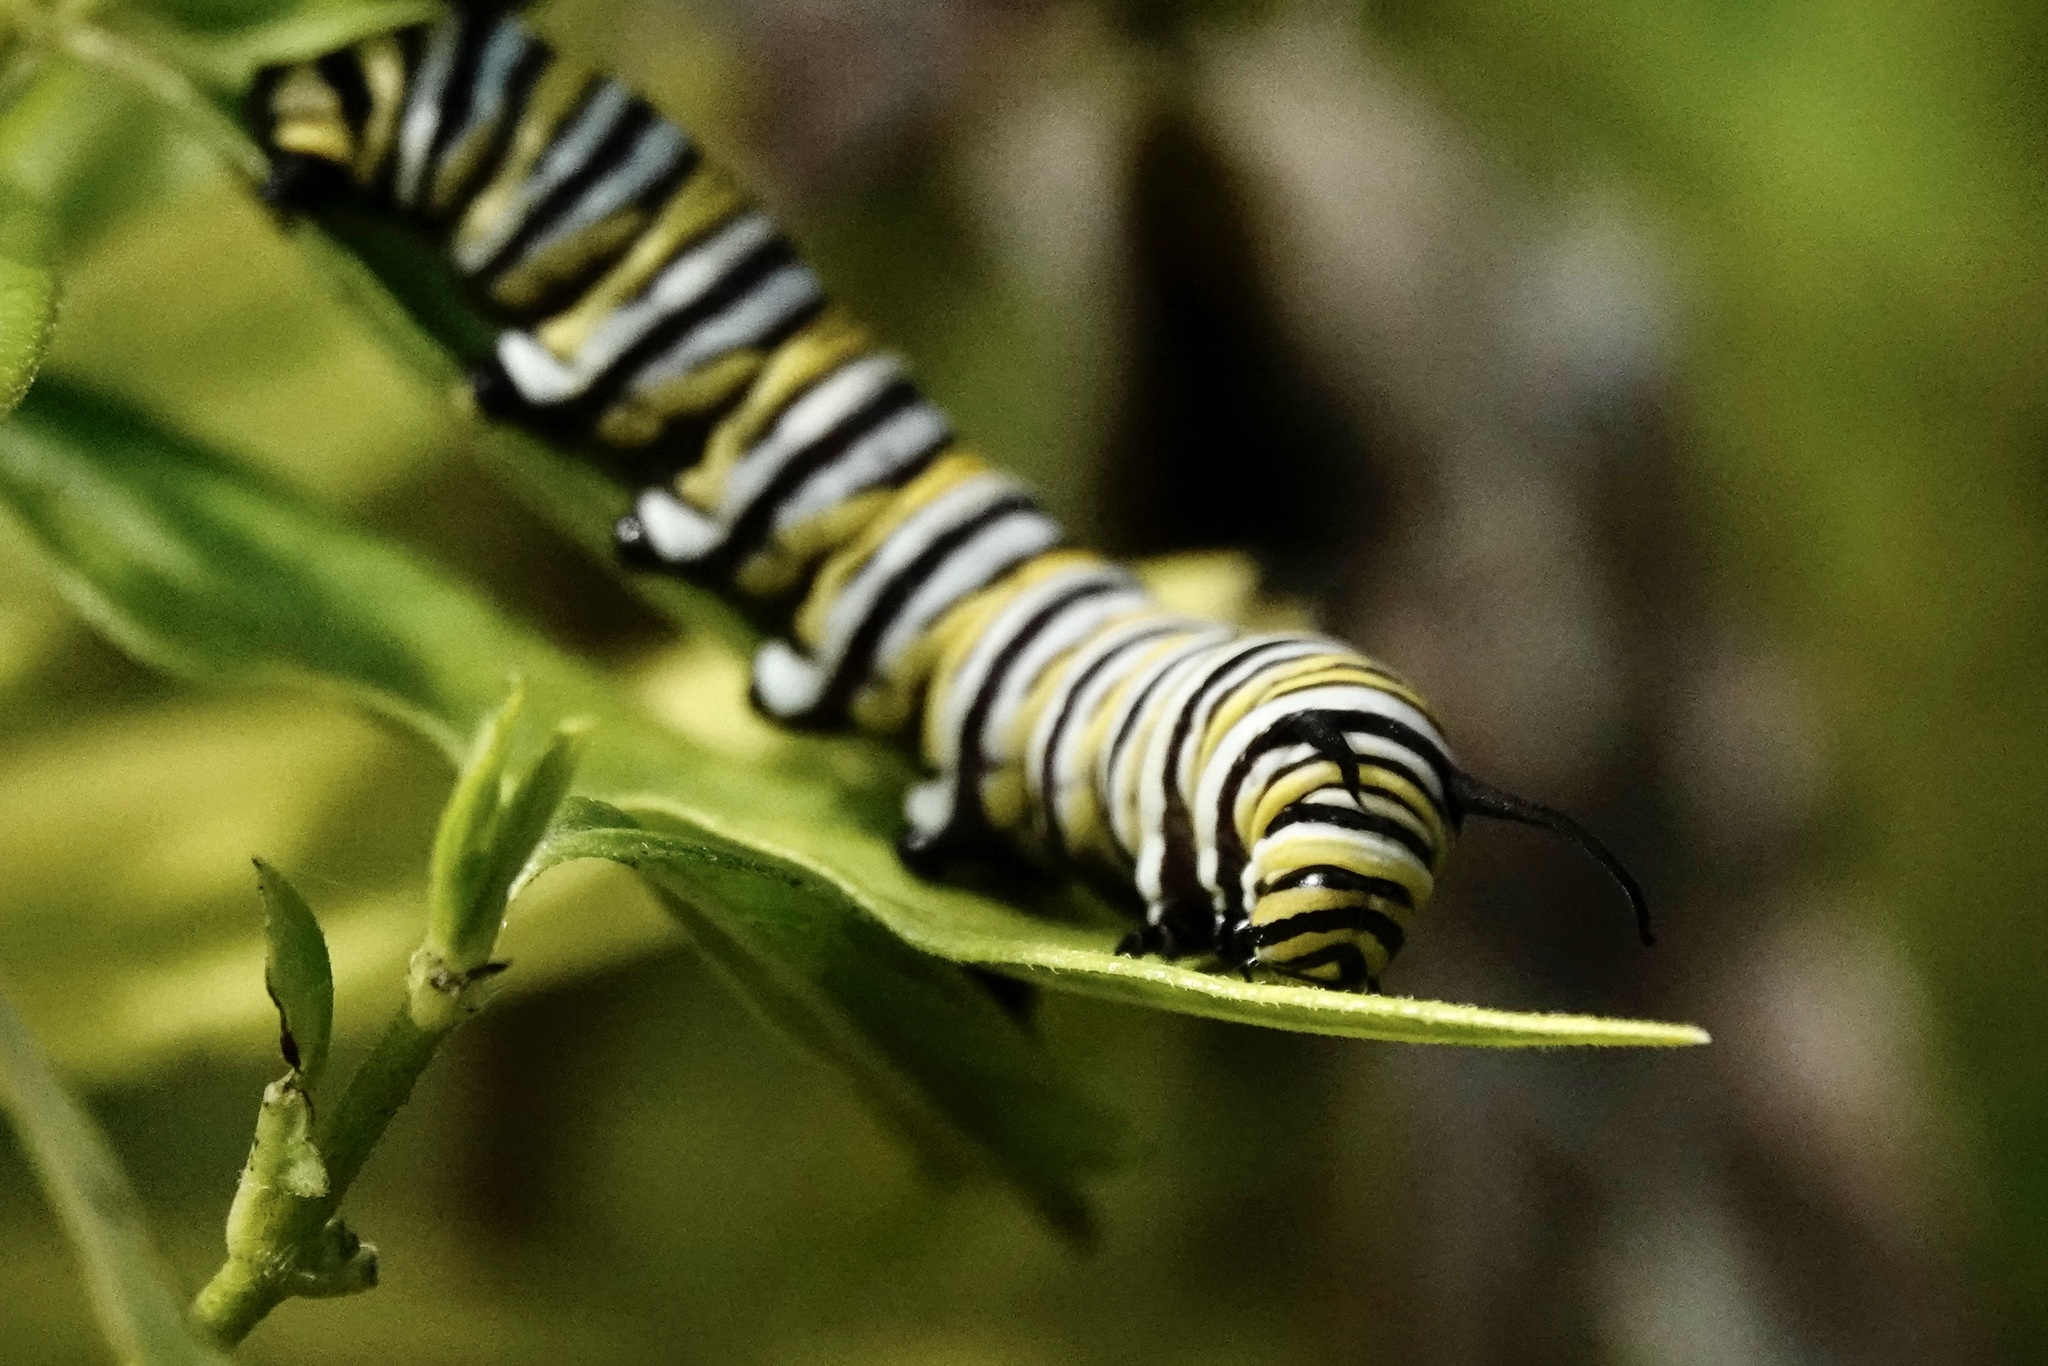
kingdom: Animalia
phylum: Arthropoda
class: Insecta
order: Lepidoptera
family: Nymphalidae
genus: Danaus
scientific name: Danaus plexippus
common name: Monarch
